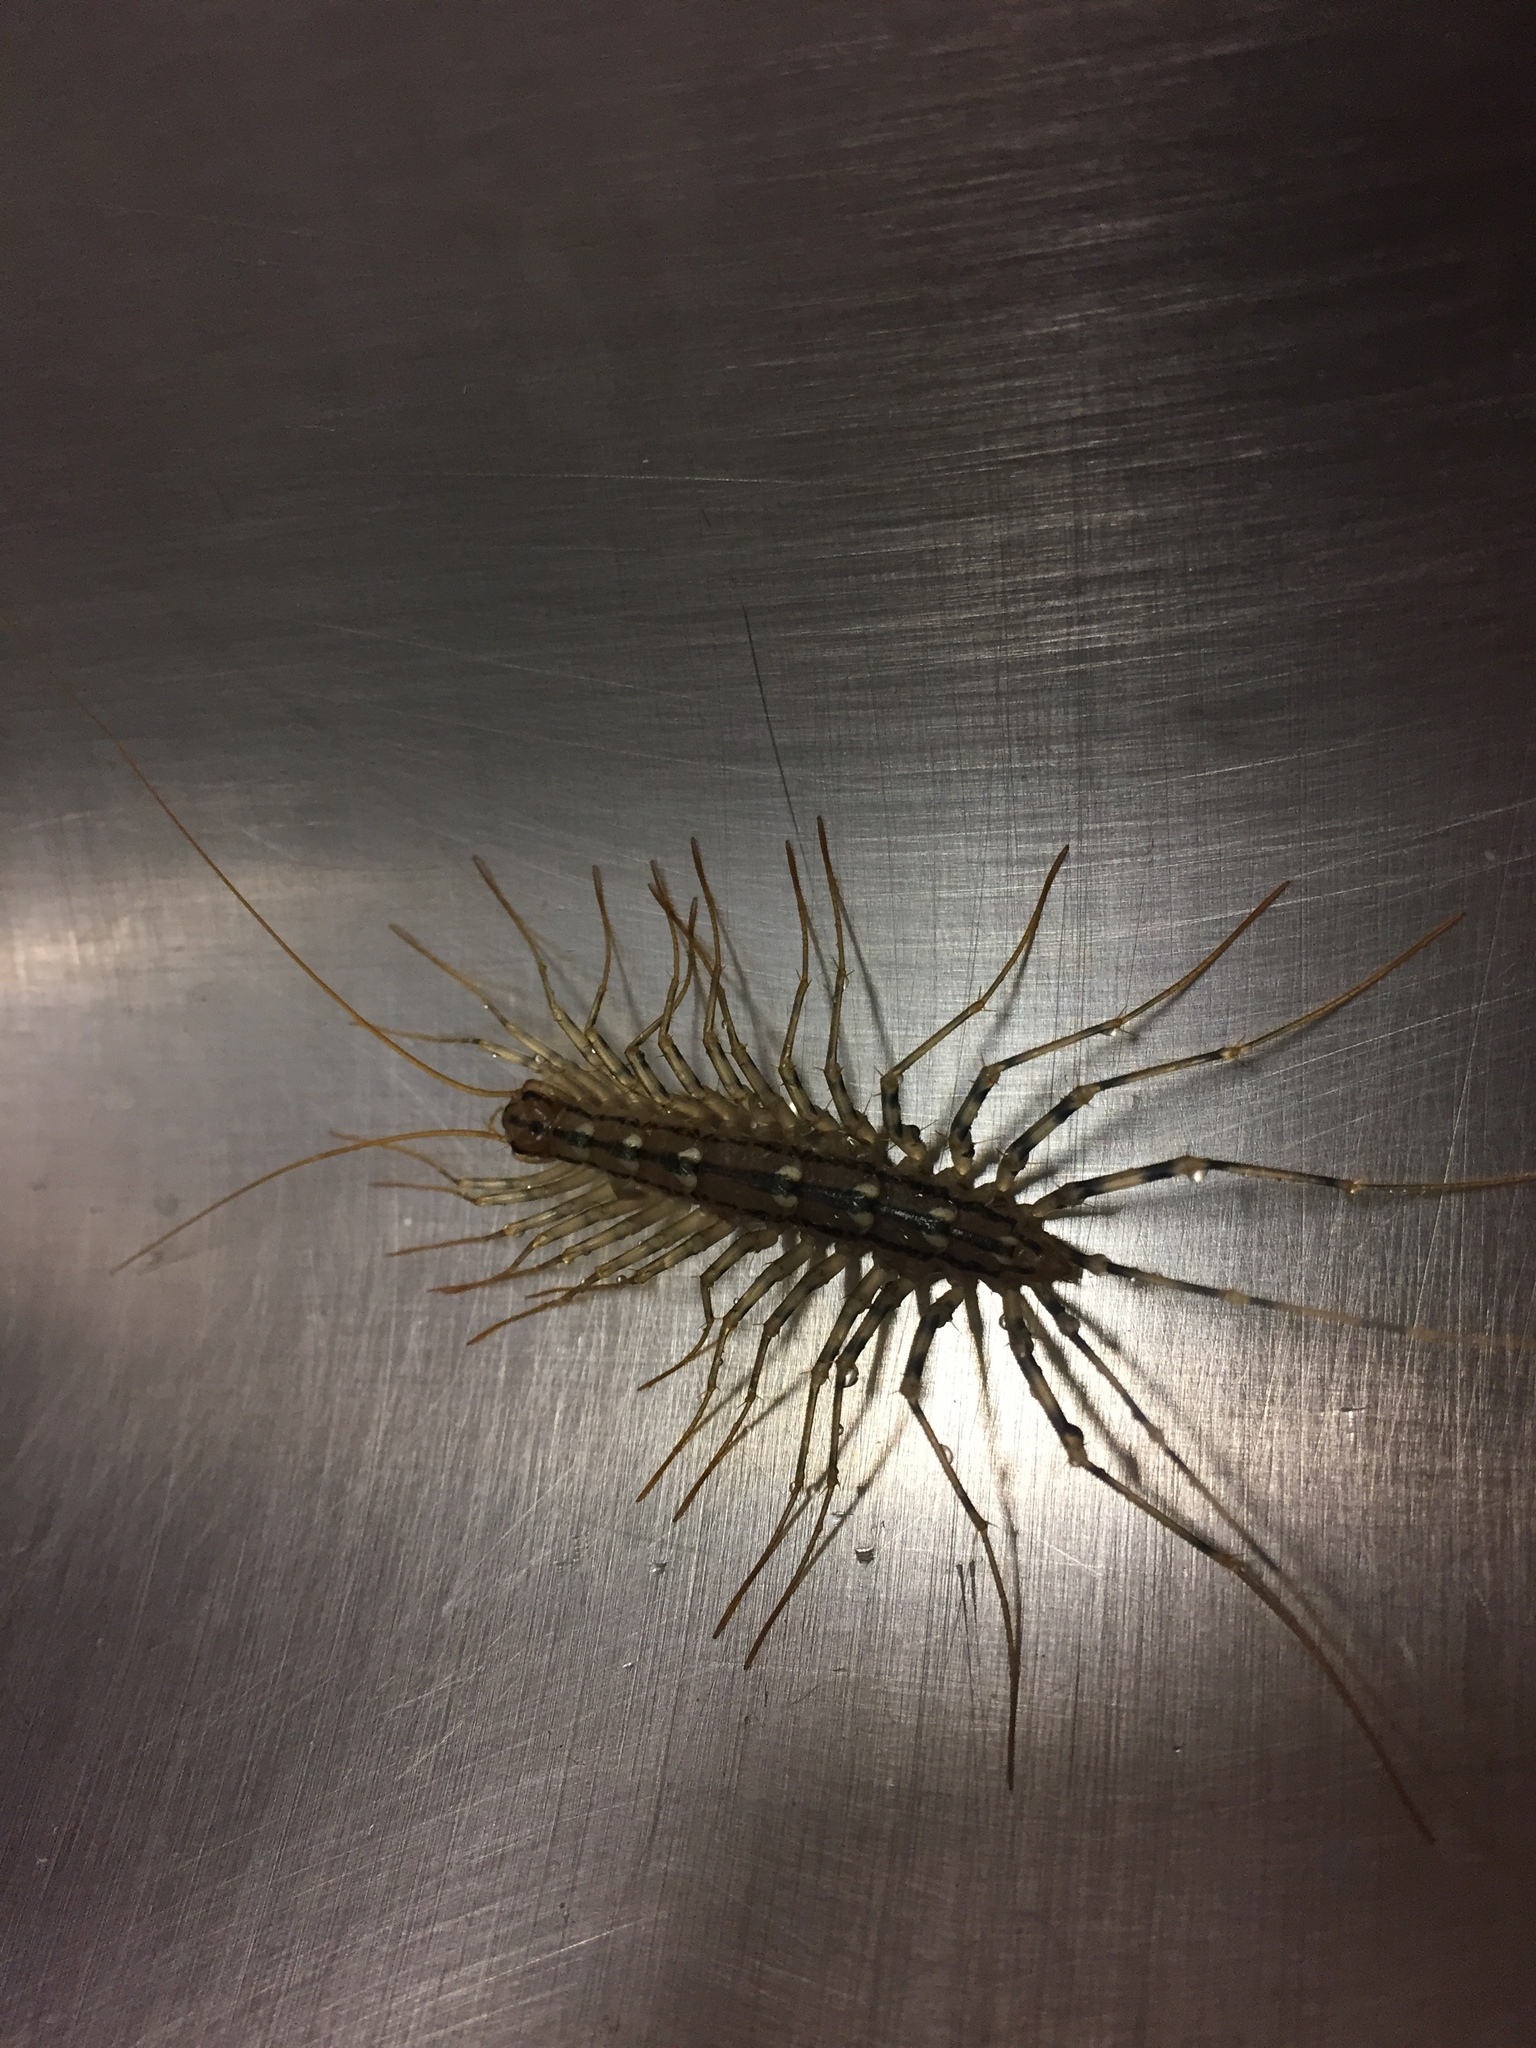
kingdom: Animalia
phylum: Arthropoda
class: Chilopoda
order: Scutigeromorpha
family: Scutigeridae
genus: Scutigera
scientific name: Scutigera coleoptrata
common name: House centipede
